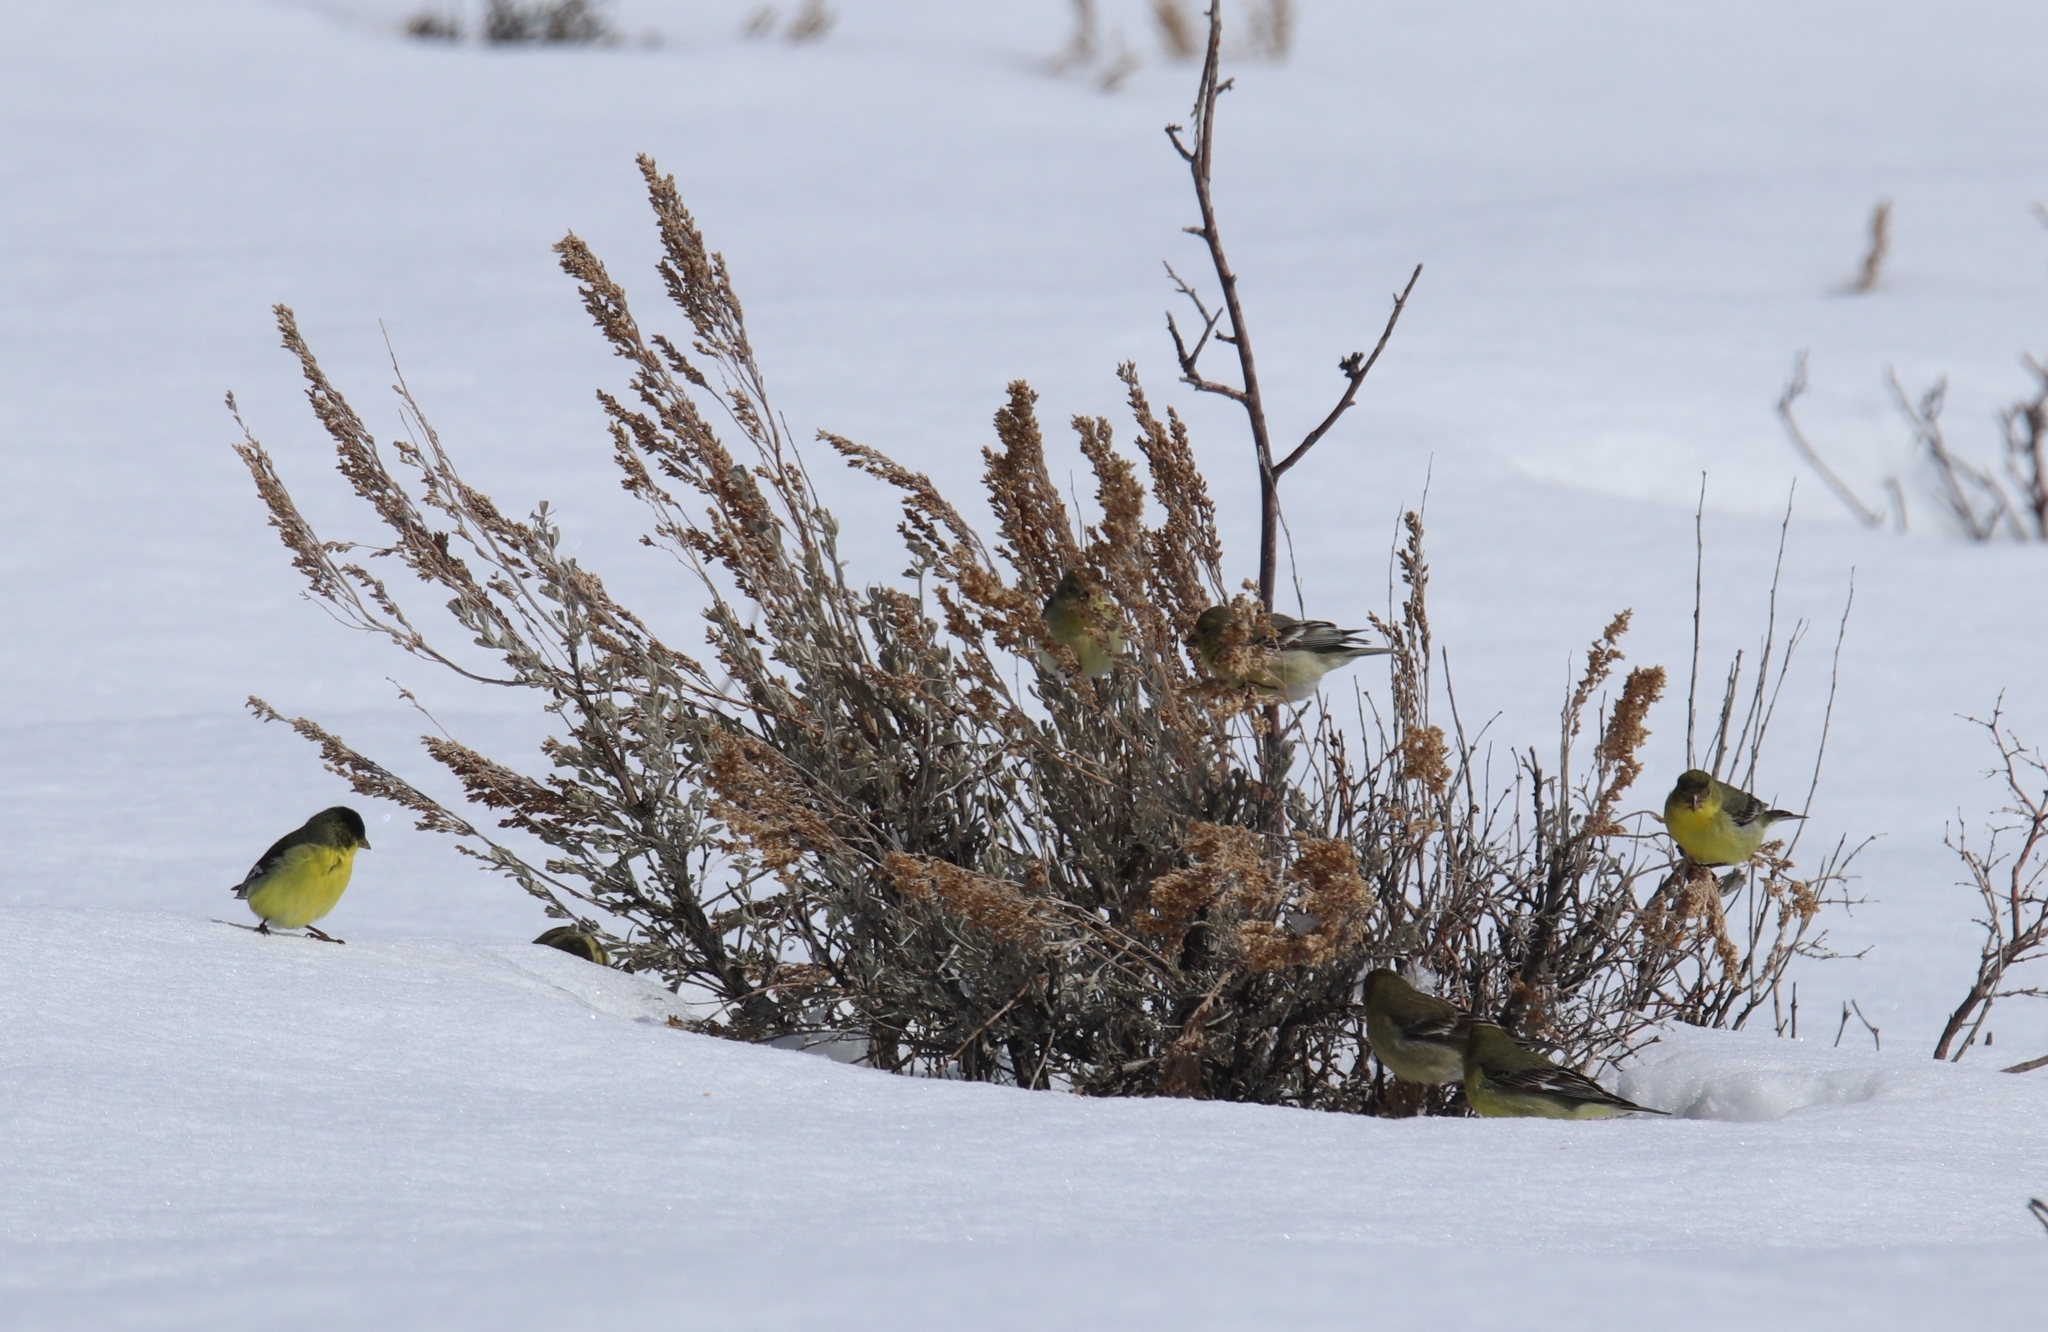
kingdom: Animalia
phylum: Chordata
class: Aves
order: Passeriformes
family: Fringillidae
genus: Spinus
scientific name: Spinus psaltria
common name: Lesser goldfinch
